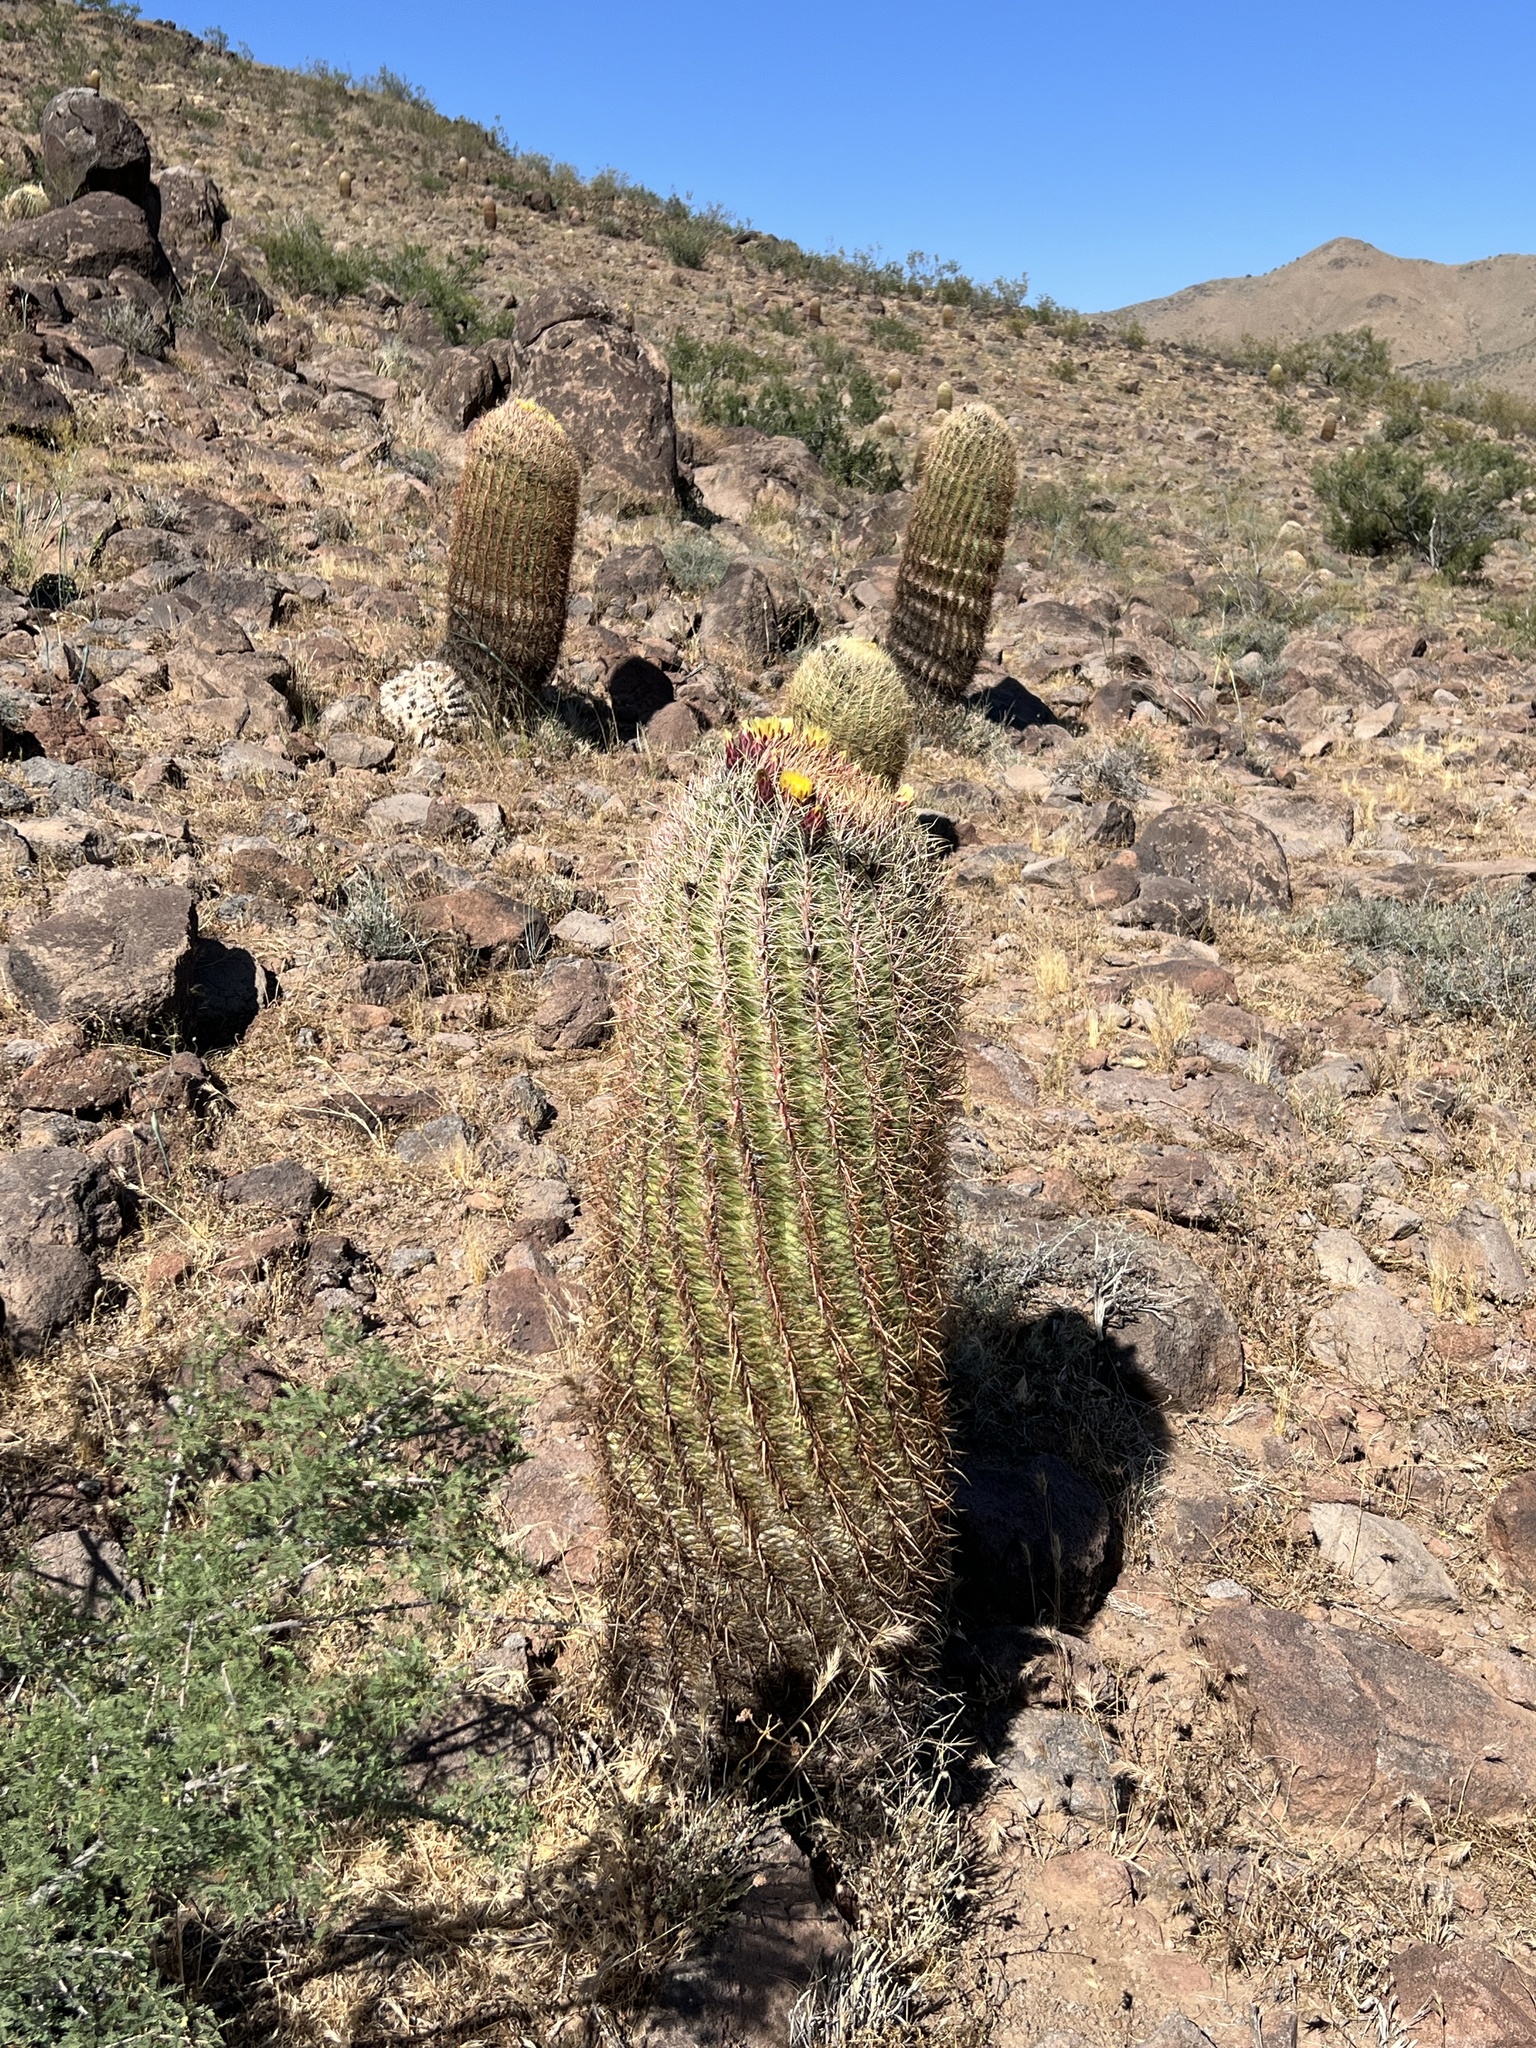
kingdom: Plantae
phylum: Tracheophyta
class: Magnoliopsida
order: Caryophyllales
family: Cactaceae
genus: Ferocactus
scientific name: Ferocactus cylindraceus
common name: California barrel cactus
